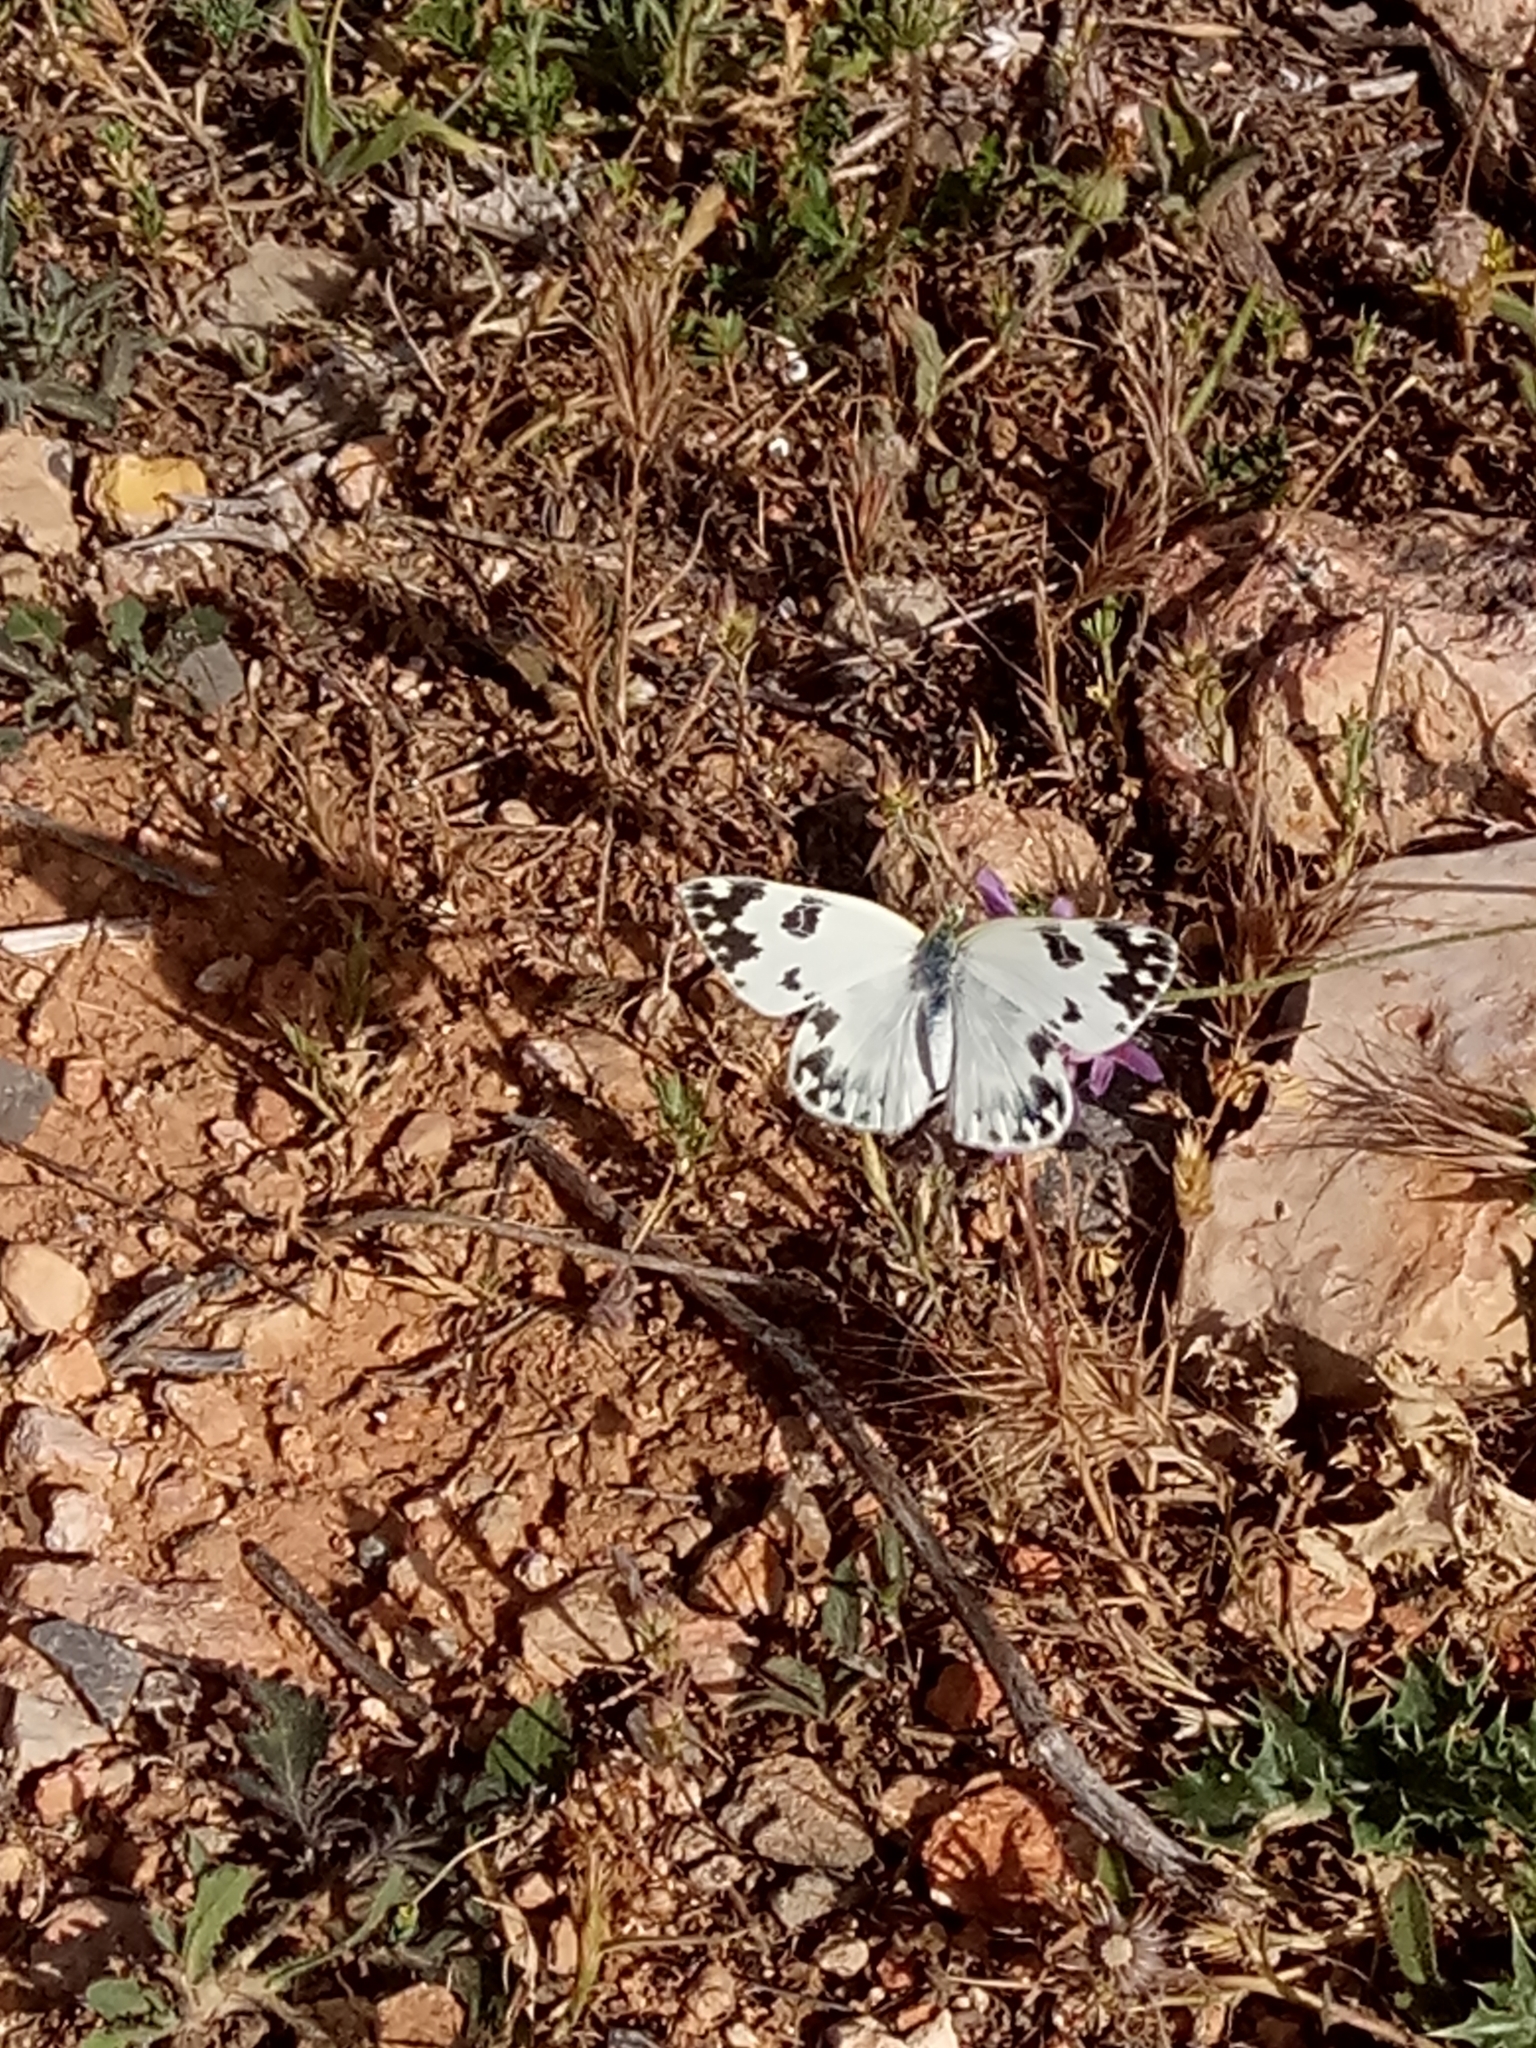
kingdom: Animalia
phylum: Arthropoda
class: Insecta
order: Lepidoptera
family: Pieridae
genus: Pontia
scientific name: Pontia daplidice
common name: Bath white
